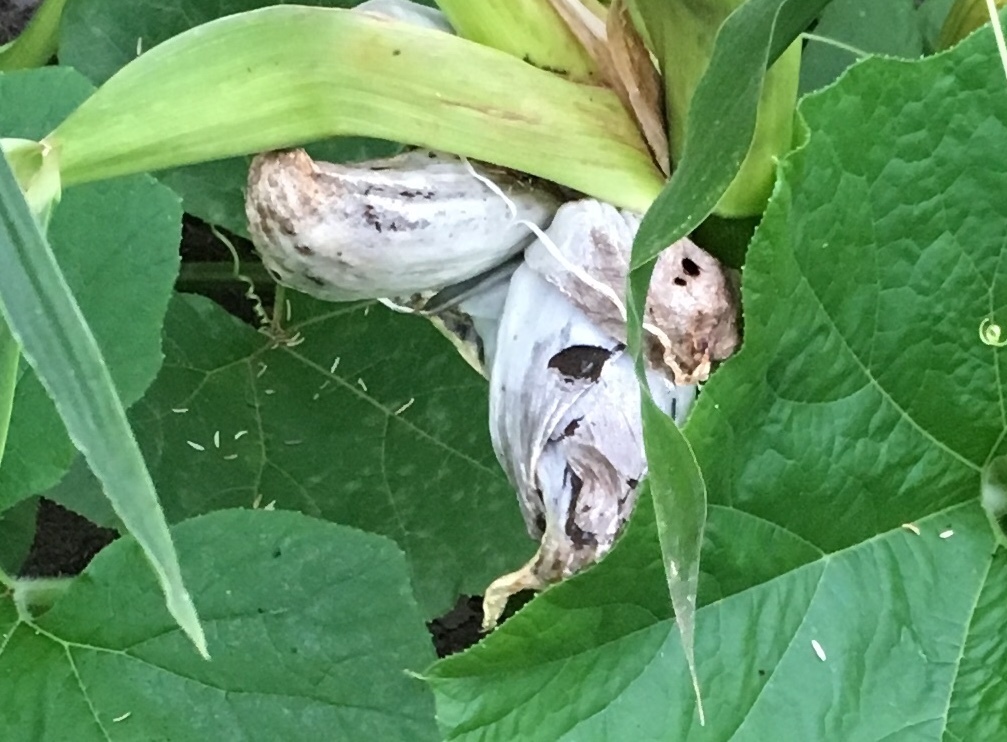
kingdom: Fungi
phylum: Basidiomycota
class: Ustilaginomycetes
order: Ustilaginales
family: Ustilaginaceae
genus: Mycosarcoma
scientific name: Mycosarcoma maydis
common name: Corn smut
